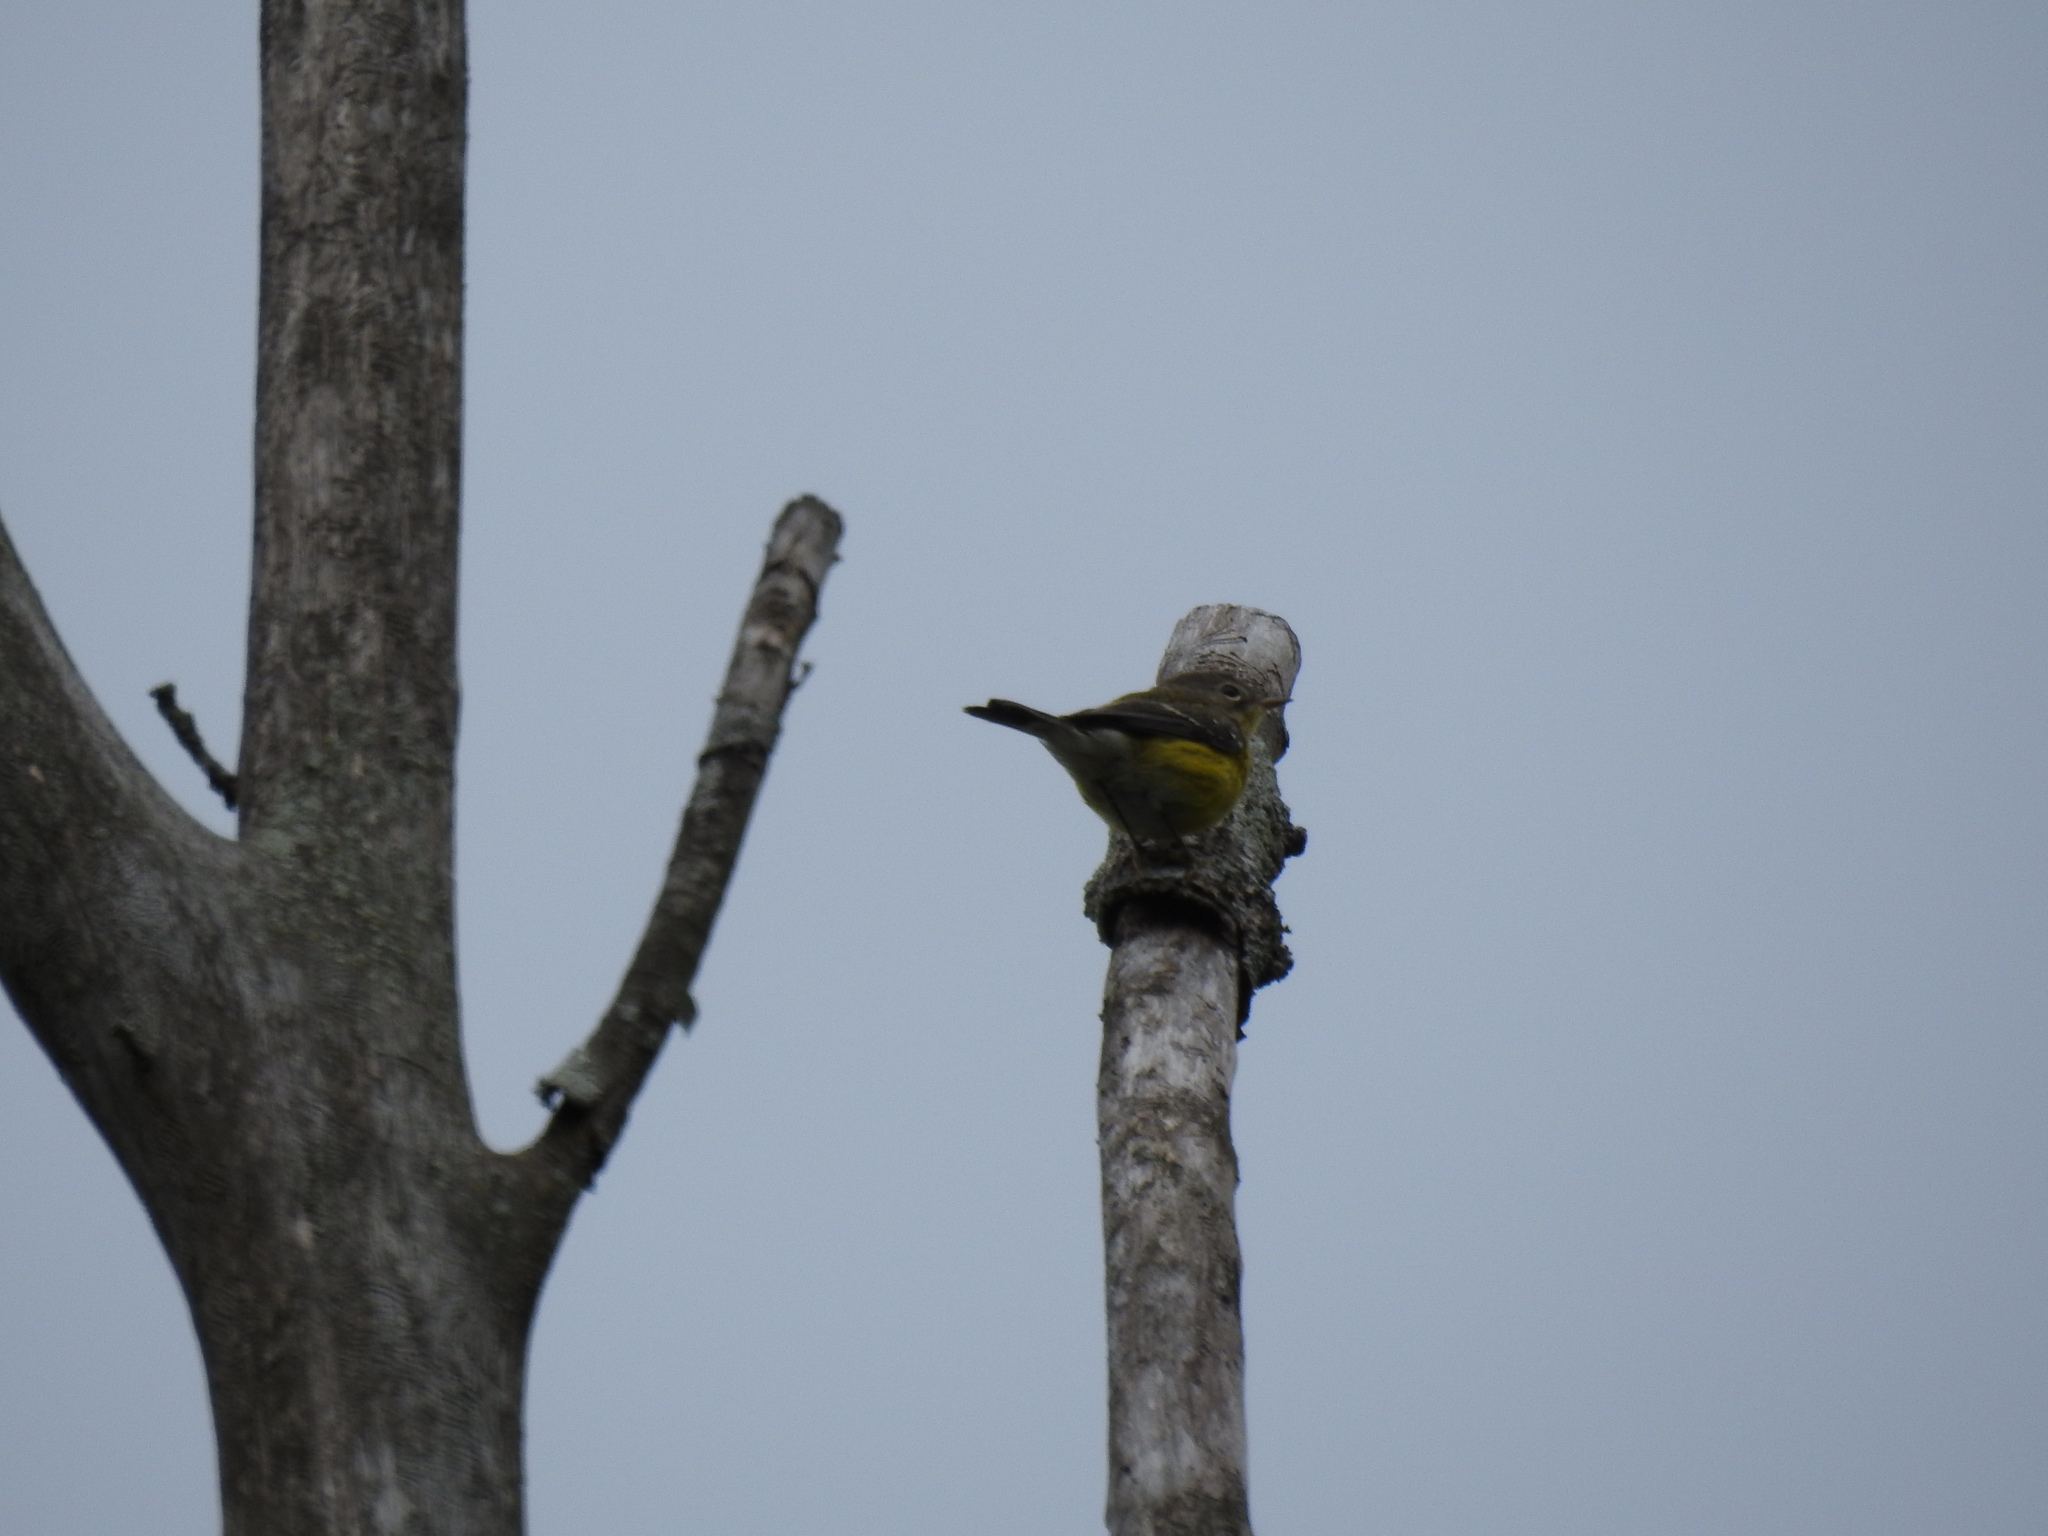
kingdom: Animalia
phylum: Chordata
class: Aves
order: Passeriformes
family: Parulidae
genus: Setophaga
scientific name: Setophaga magnolia
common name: Magnolia warbler
